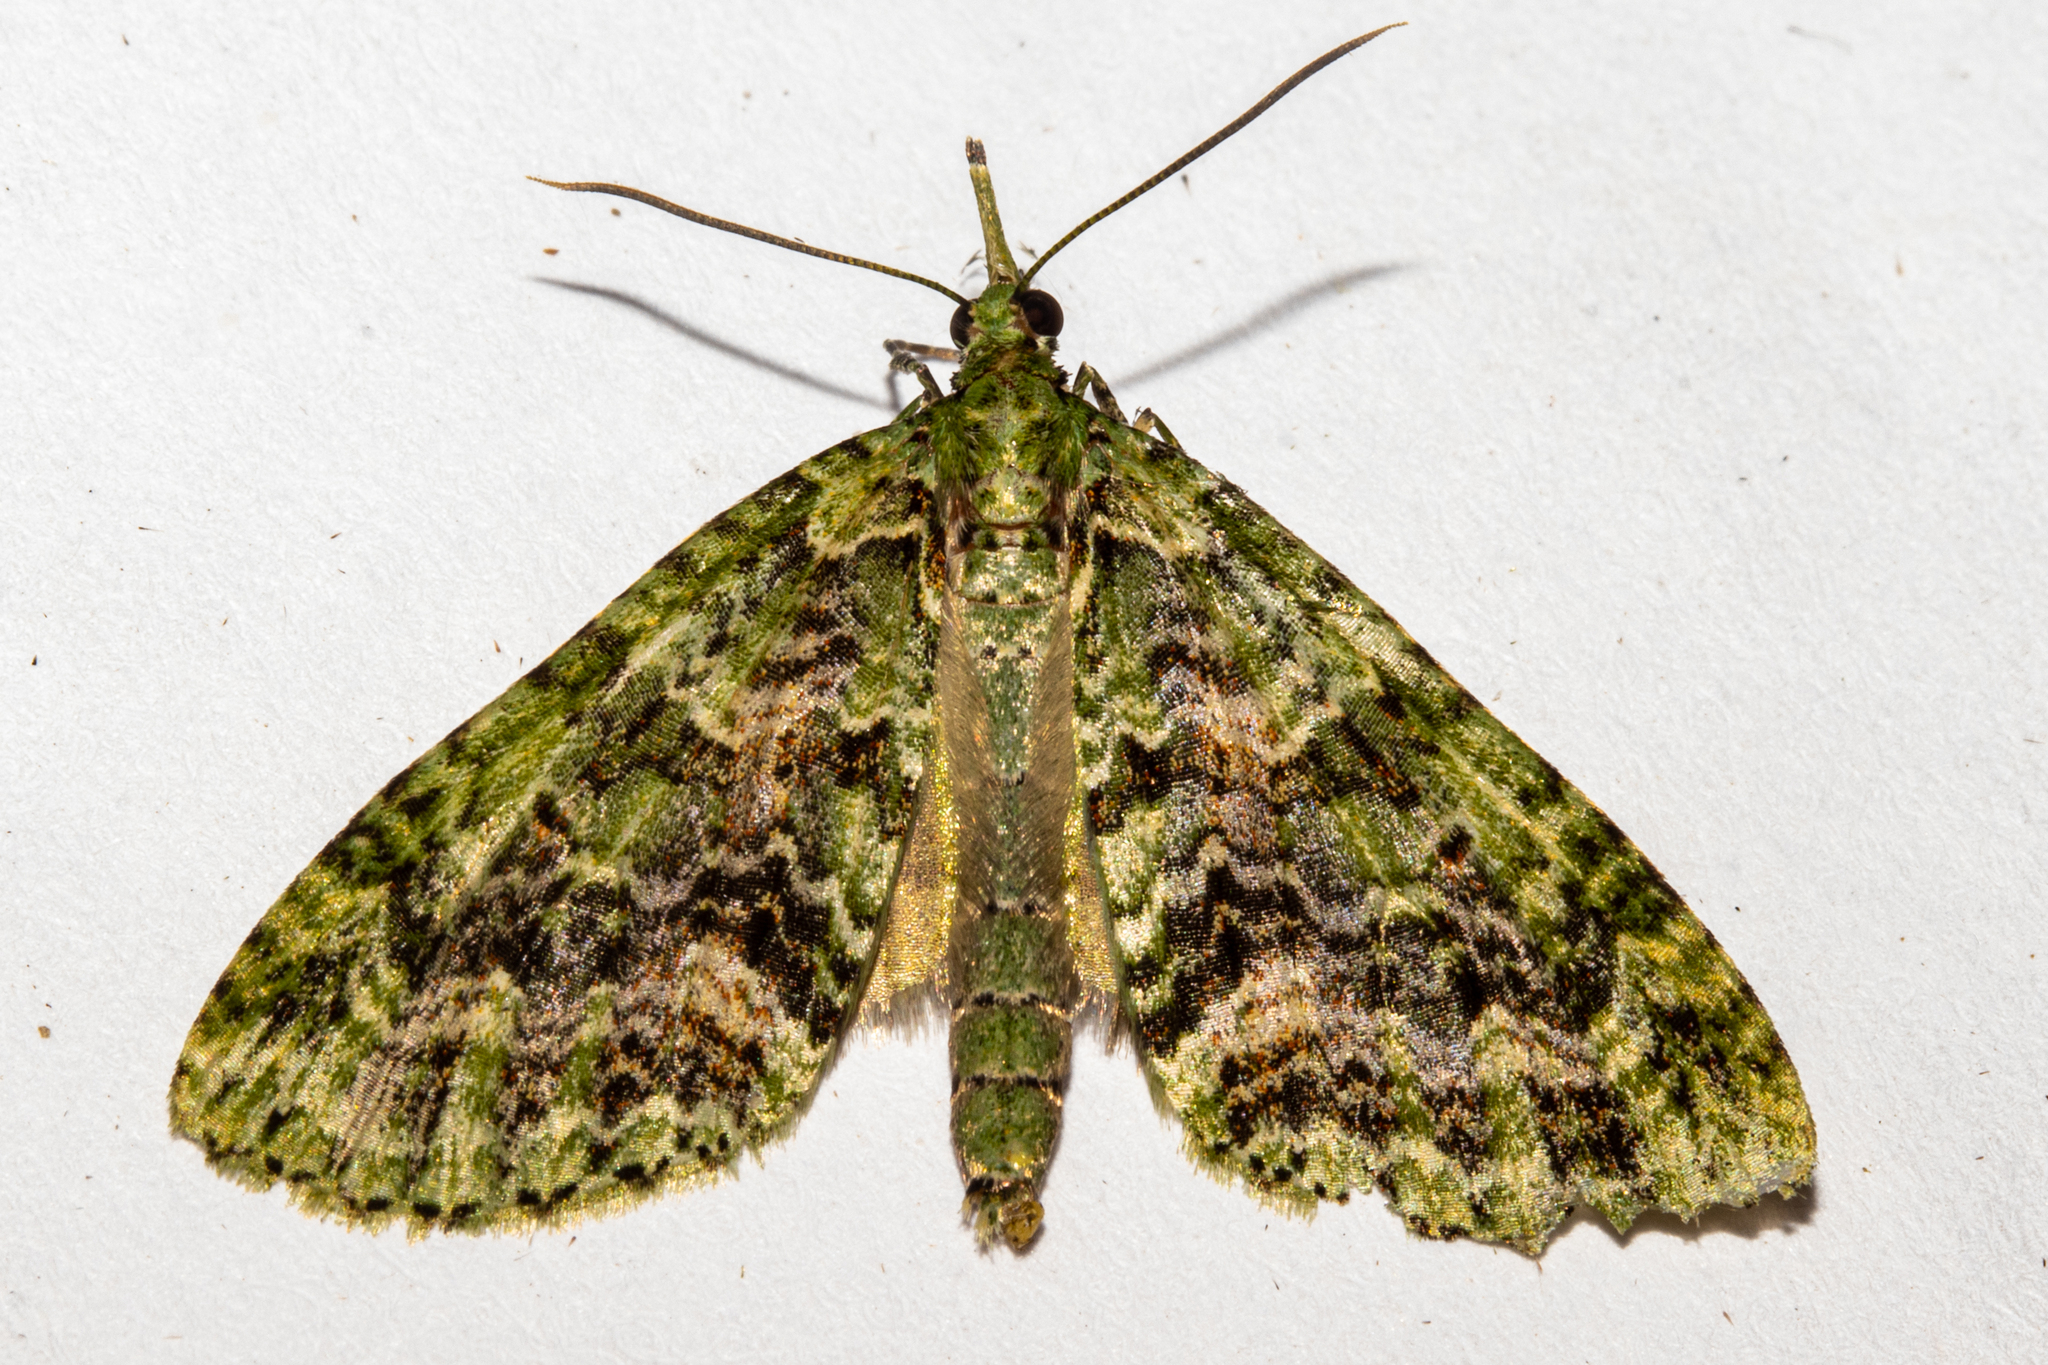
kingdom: Animalia
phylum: Arthropoda
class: Insecta
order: Lepidoptera
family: Geometridae
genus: Tatosoma
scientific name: Tatosoma tipulata
